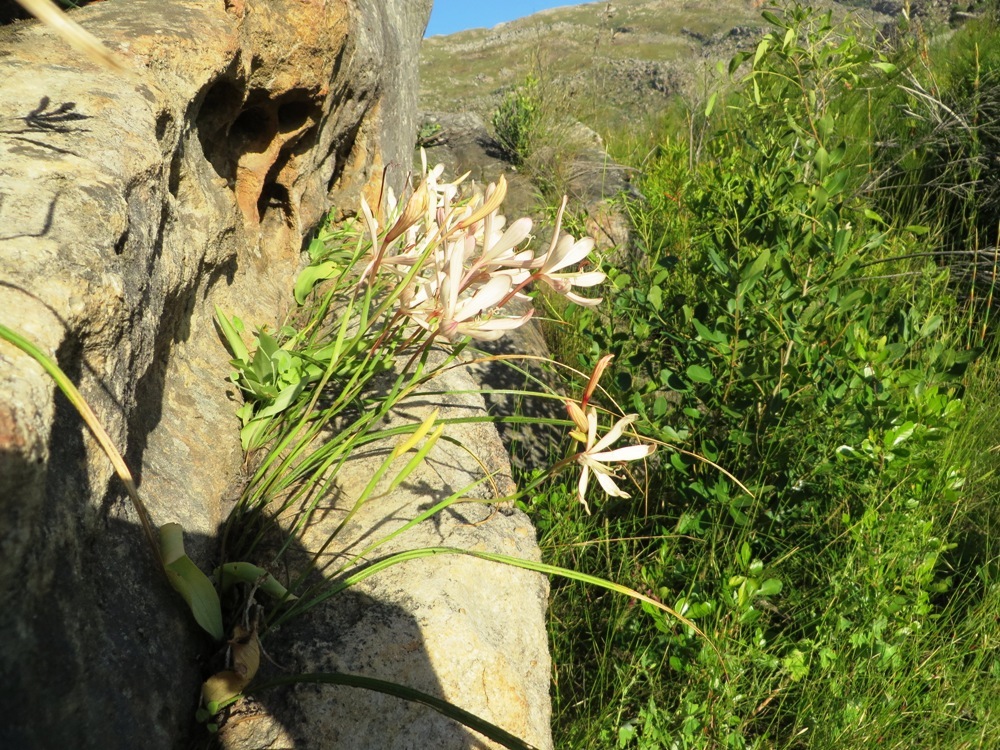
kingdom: Plantae
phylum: Tracheophyta
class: Liliopsida
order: Asparagales
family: Iridaceae
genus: Geissorhiza
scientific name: Geissorhiza exscapa
